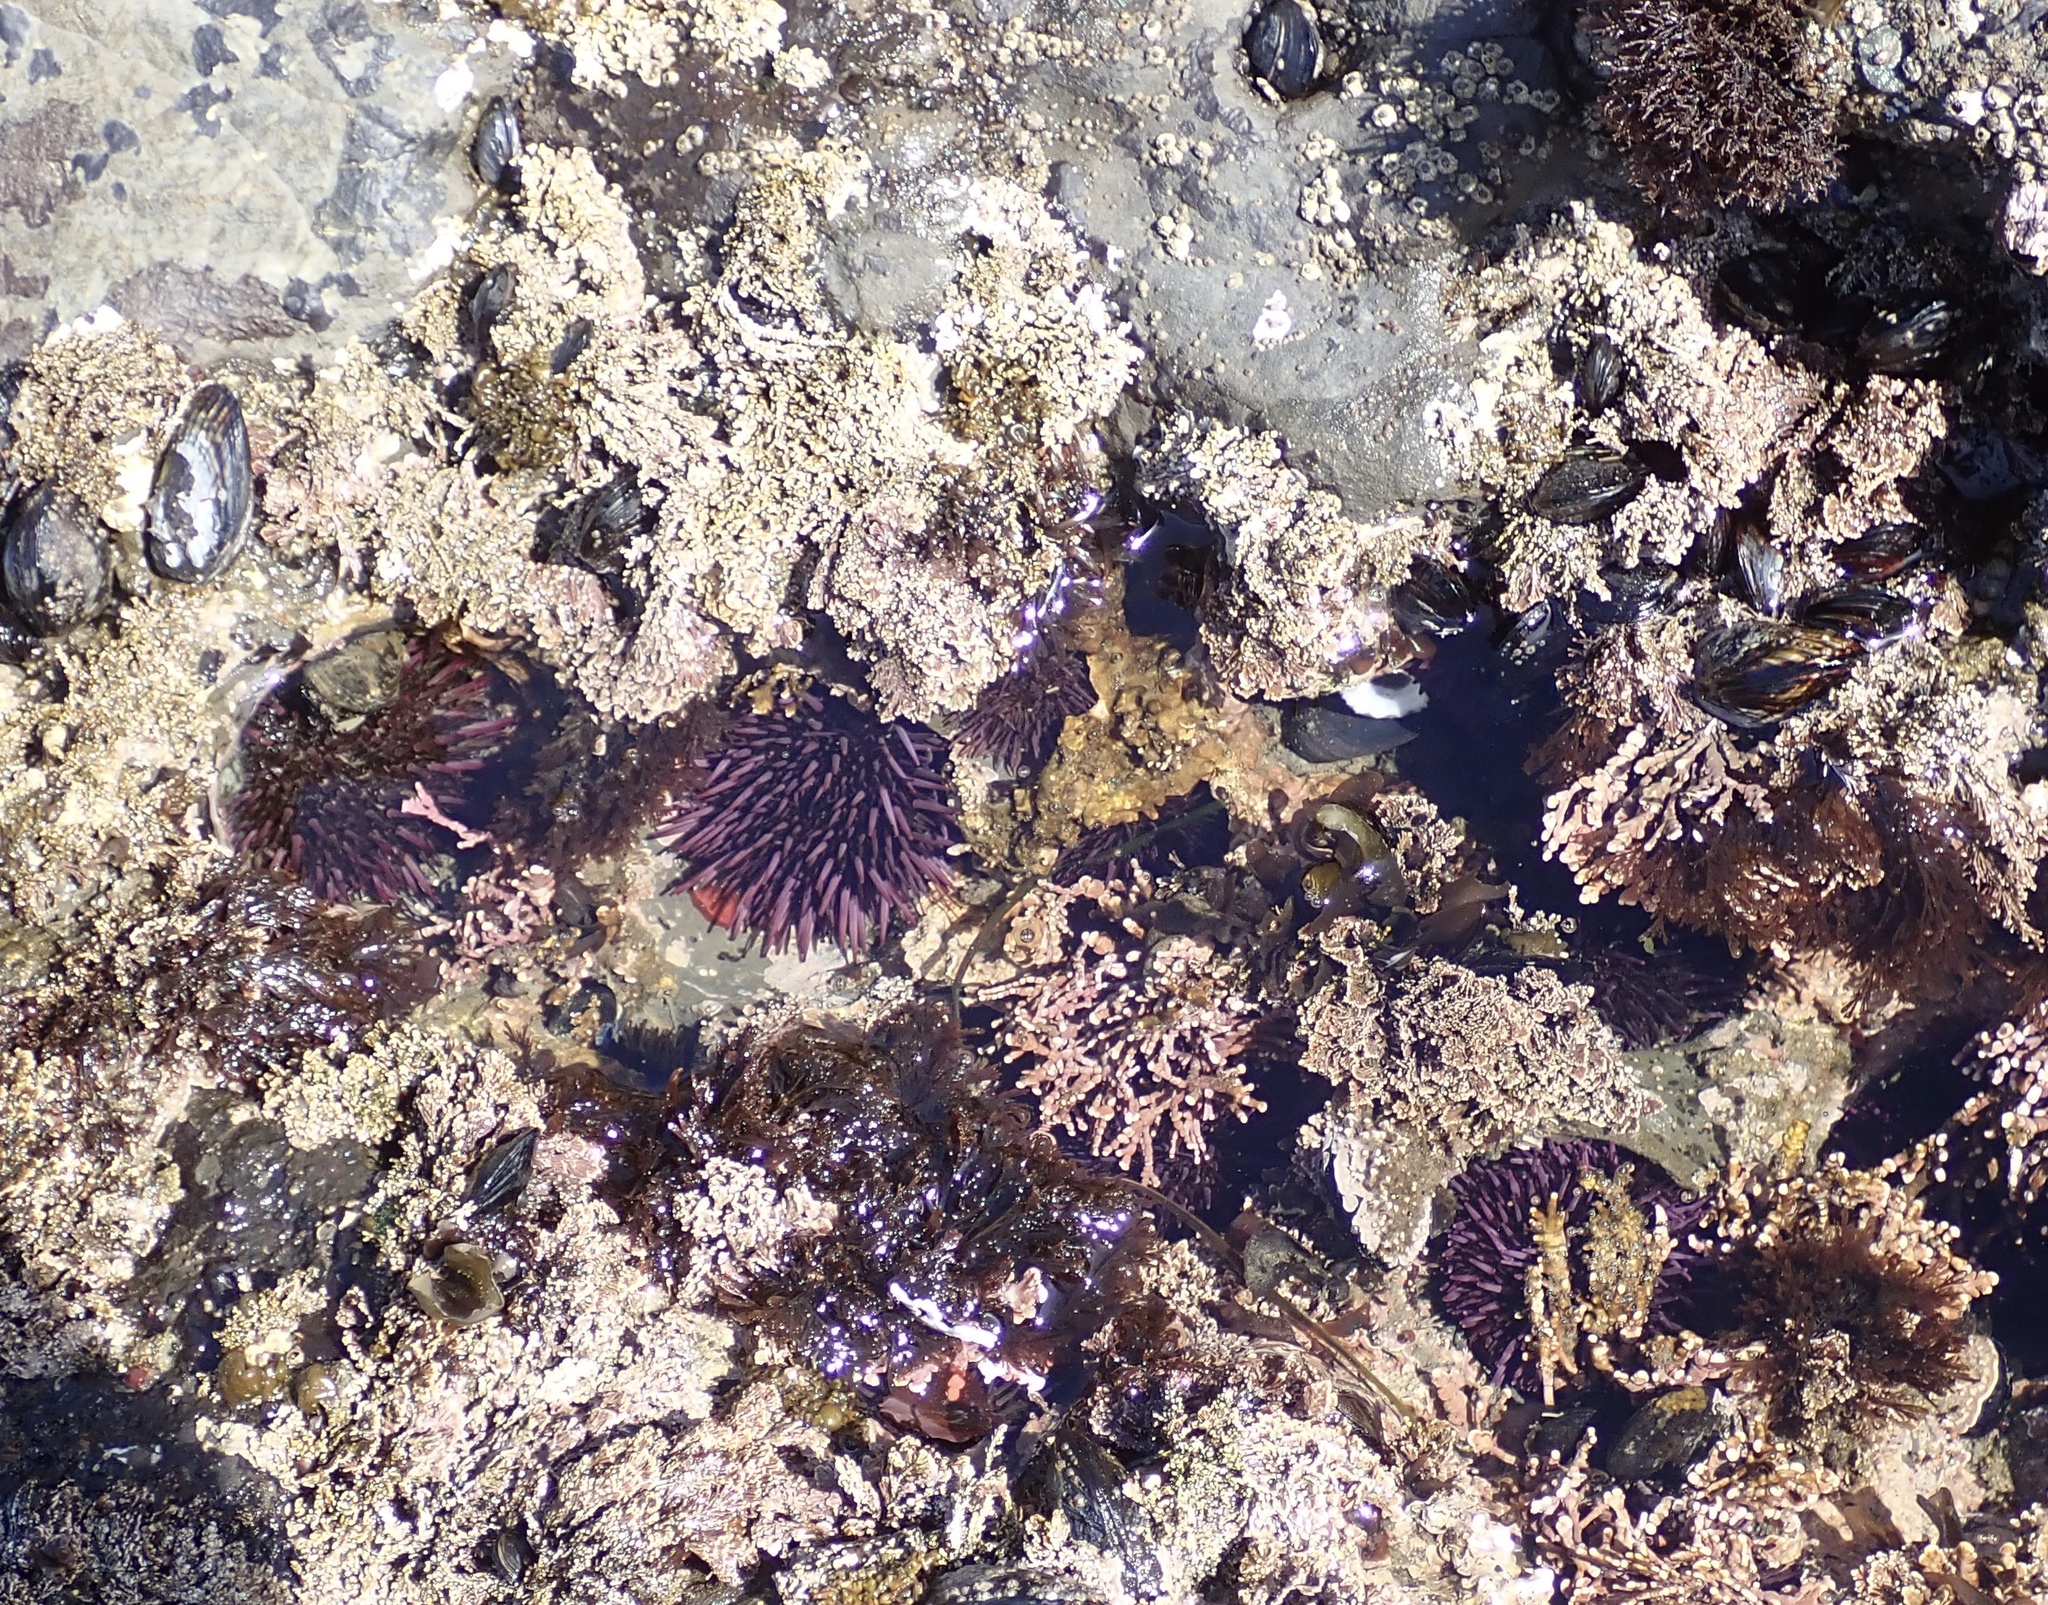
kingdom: Animalia
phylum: Echinodermata
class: Echinoidea
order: Camarodonta
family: Strongylocentrotidae
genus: Strongylocentrotus
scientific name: Strongylocentrotus purpuratus
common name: Purple sea urchin
